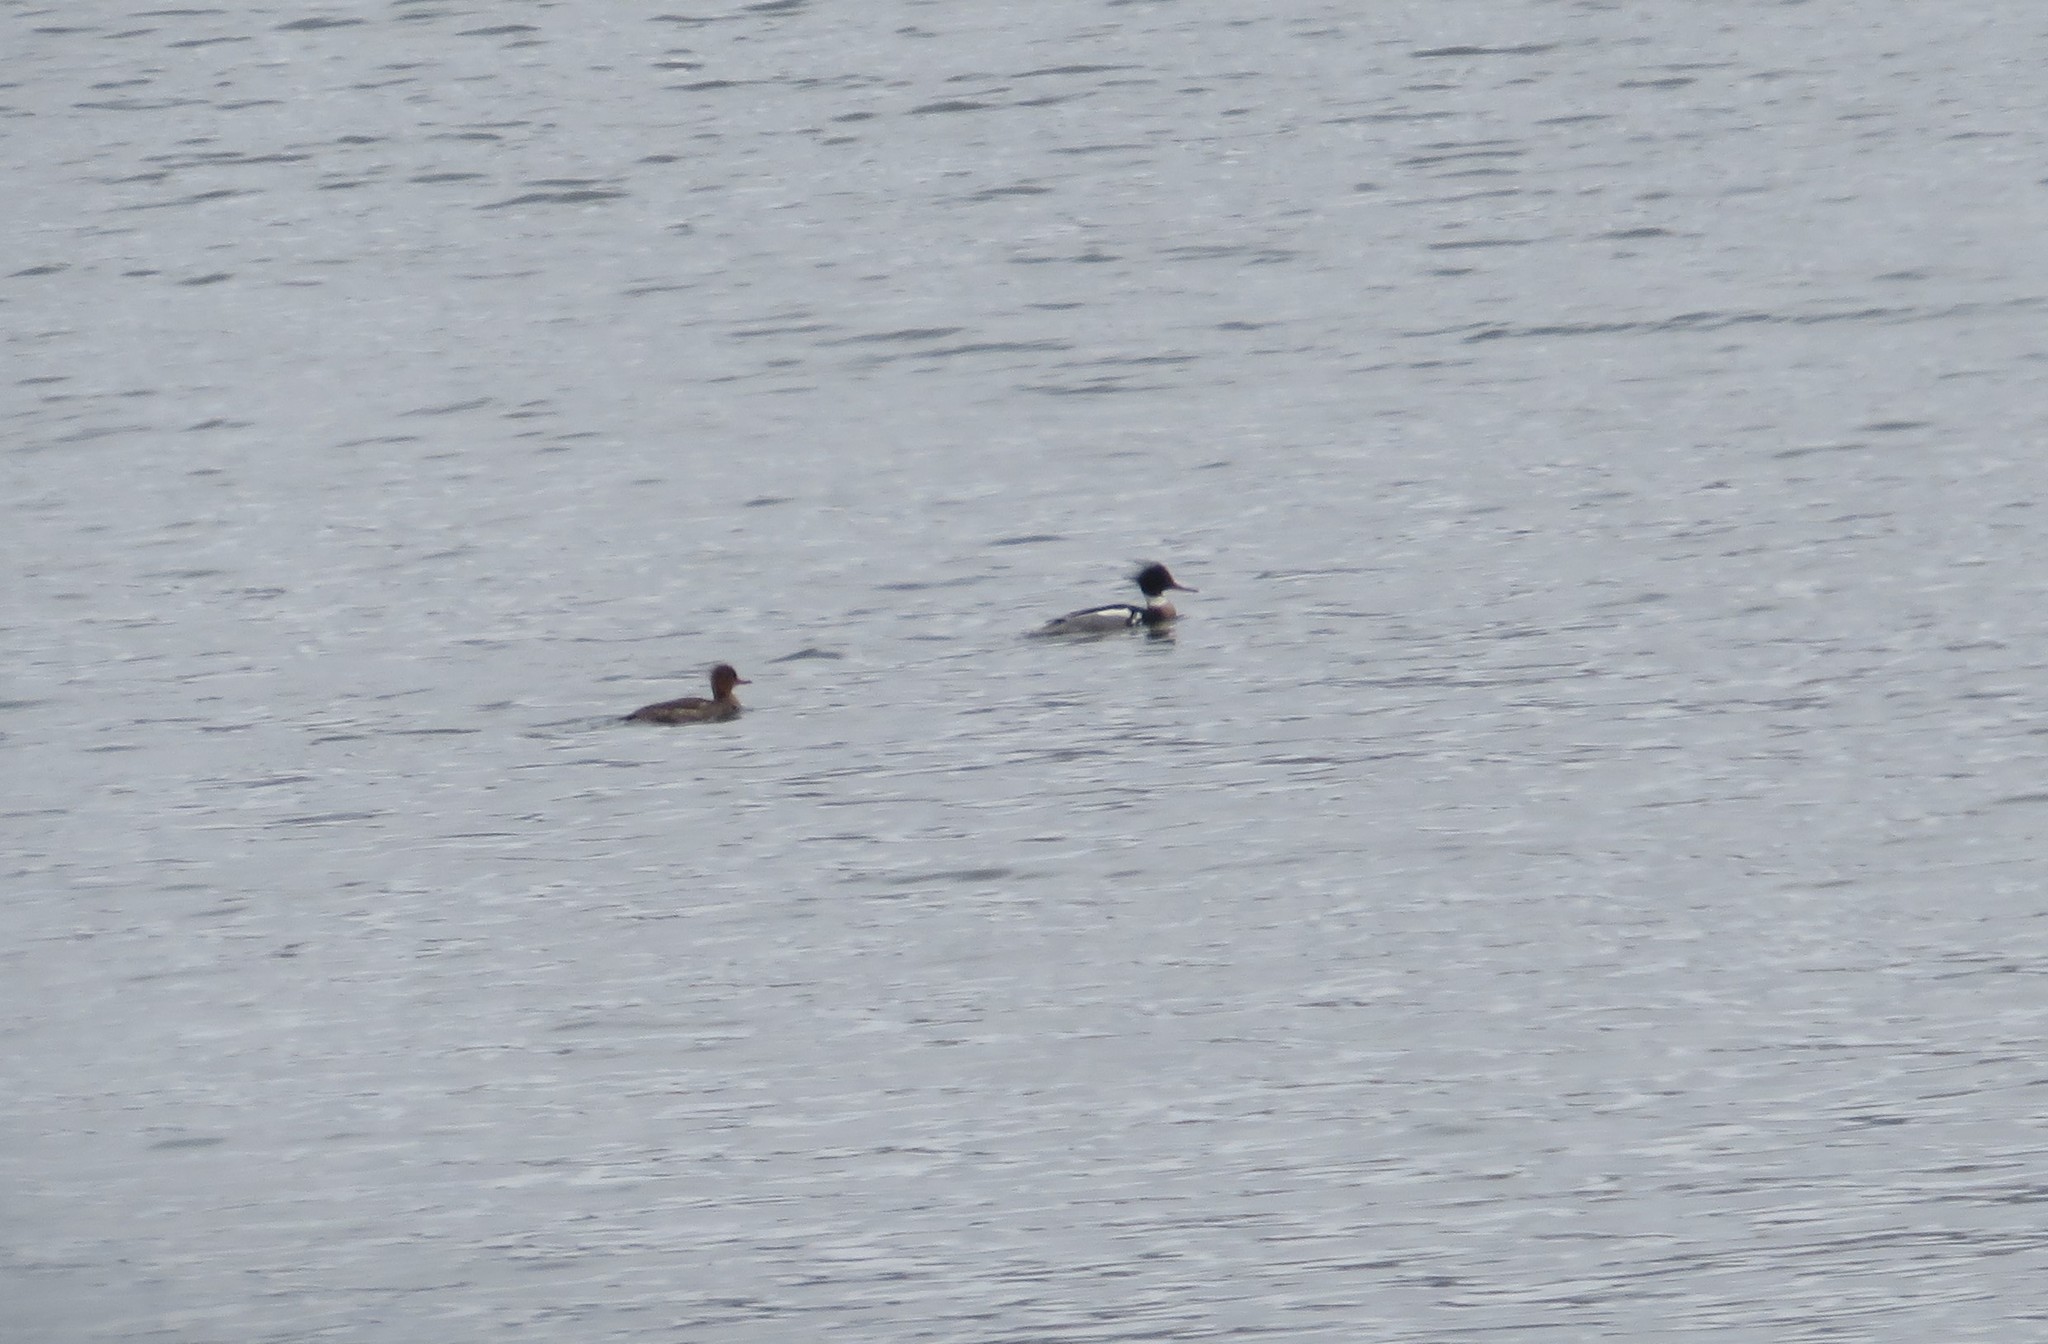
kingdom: Animalia
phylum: Chordata
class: Aves
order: Anseriformes
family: Anatidae
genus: Mergus
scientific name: Mergus serrator
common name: Red-breasted merganser
